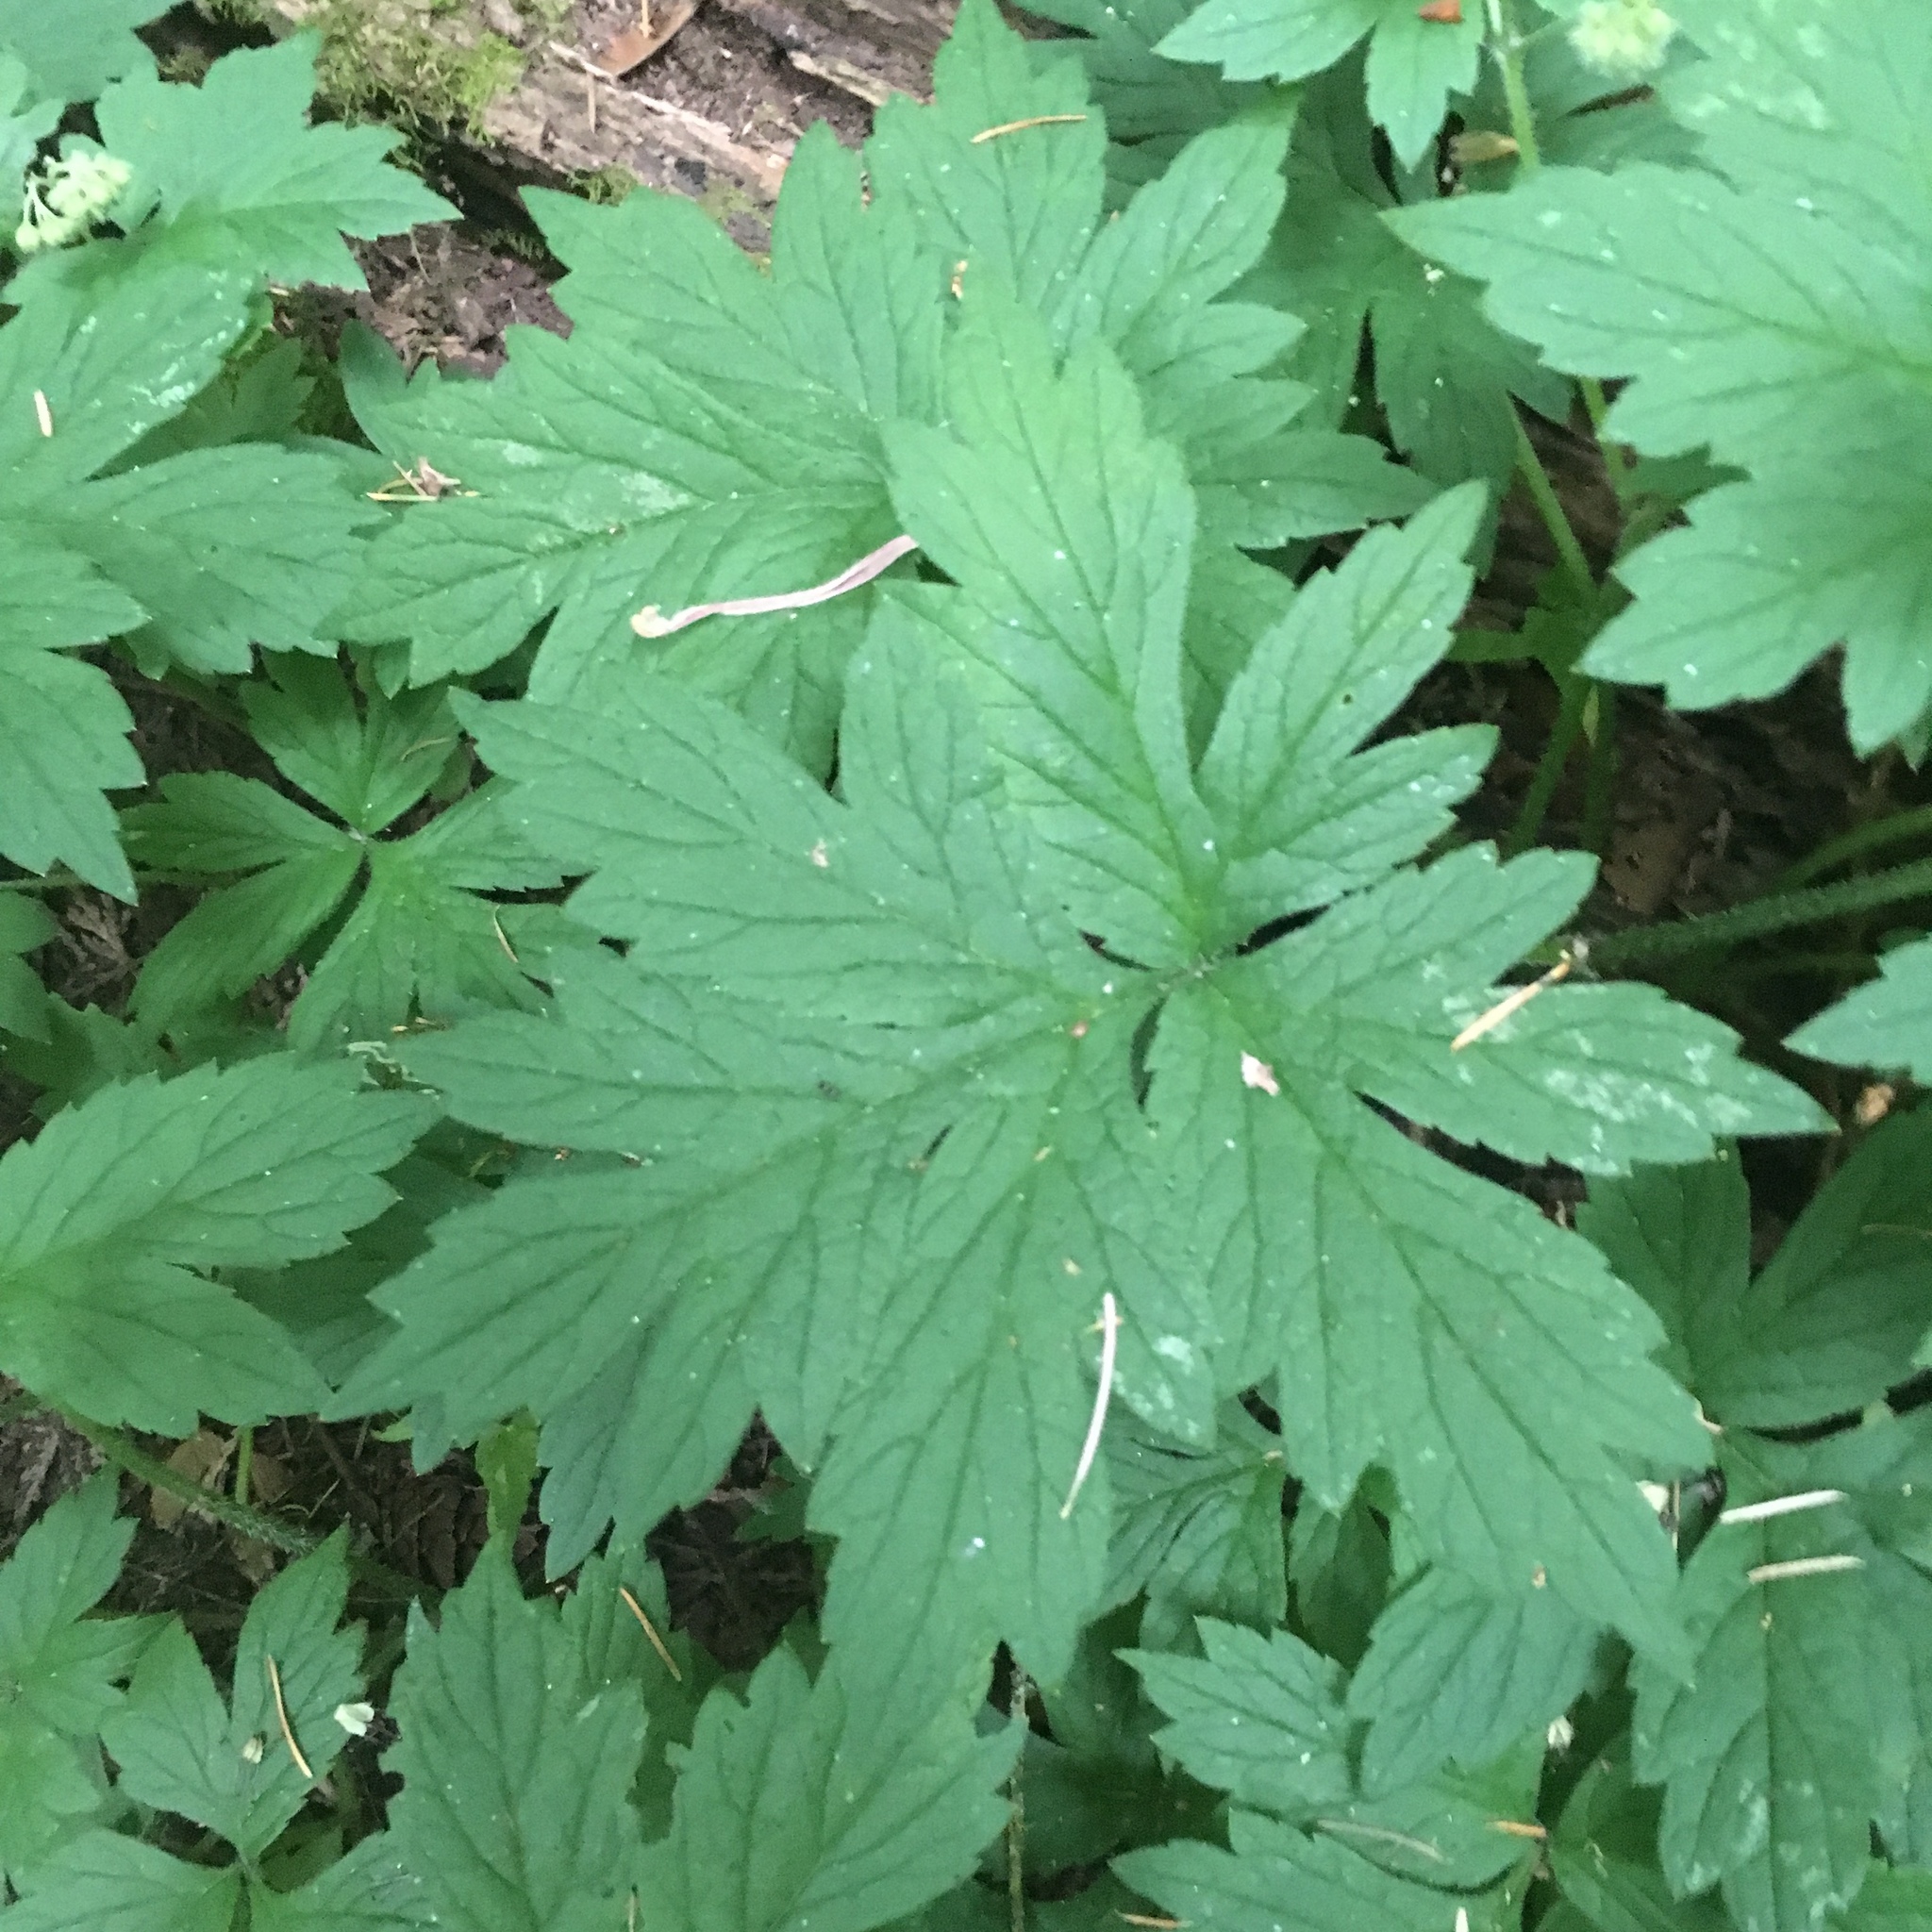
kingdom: Plantae
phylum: Tracheophyta
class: Magnoliopsida
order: Boraginales
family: Hydrophyllaceae
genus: Hydrophyllum
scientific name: Hydrophyllum tenuipes
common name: Pacific waterleaf
